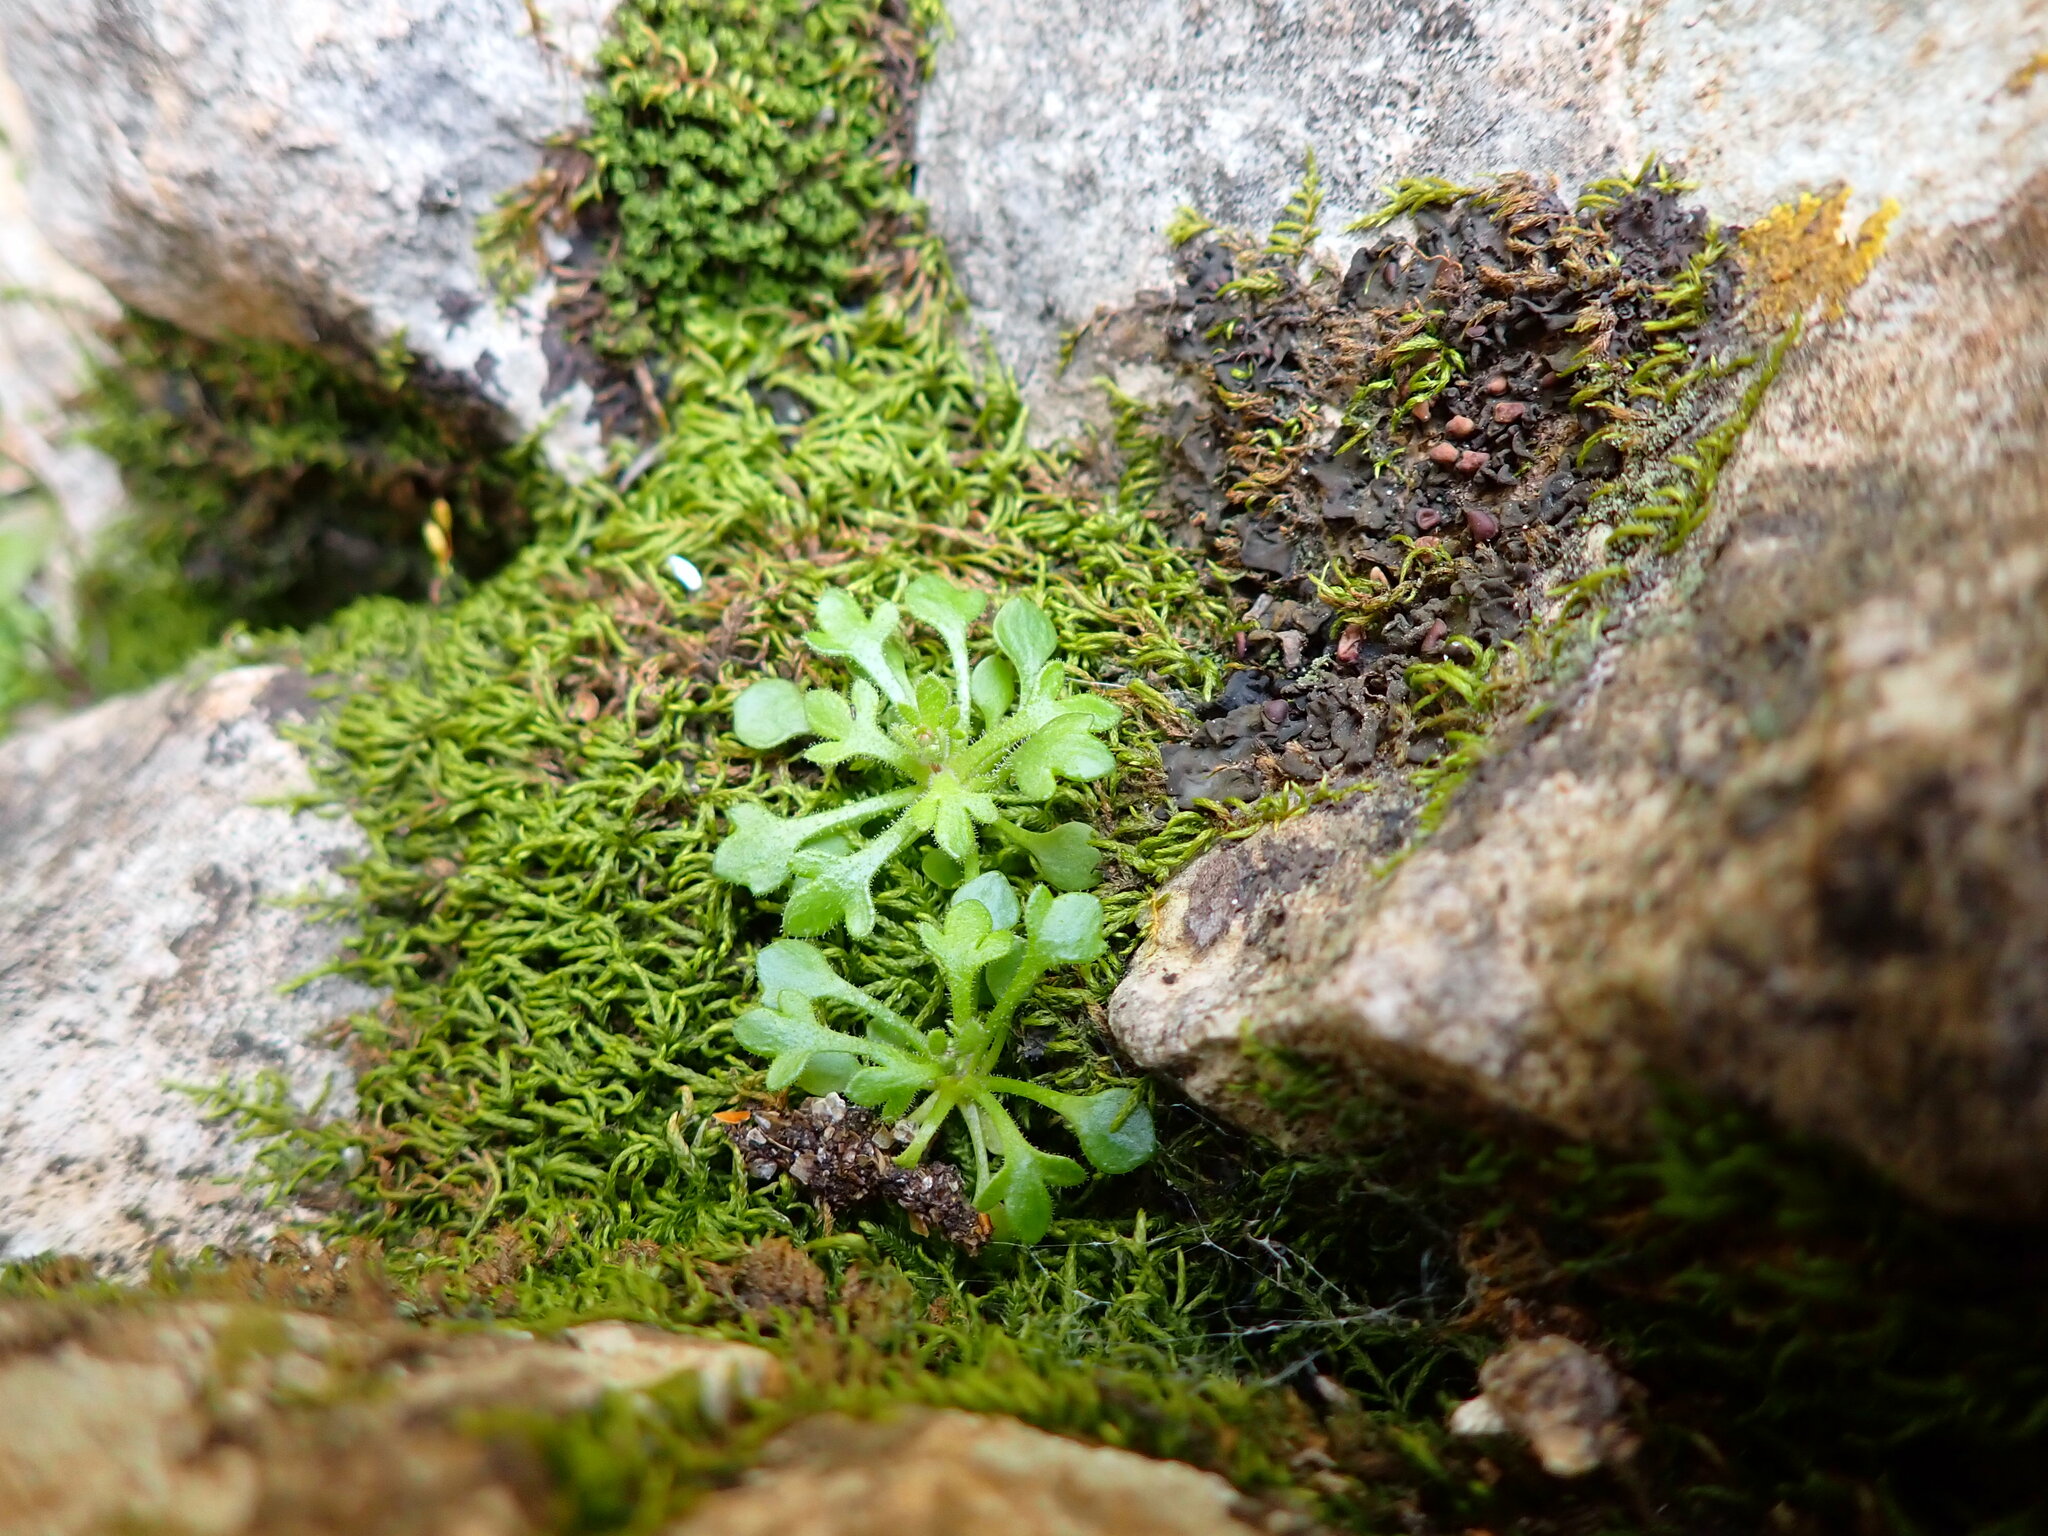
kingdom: Plantae
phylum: Tracheophyta
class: Magnoliopsida
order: Saxifragales
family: Saxifragaceae
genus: Saxifraga
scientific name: Saxifraga tridactylites
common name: Rue-leaved saxifrage
